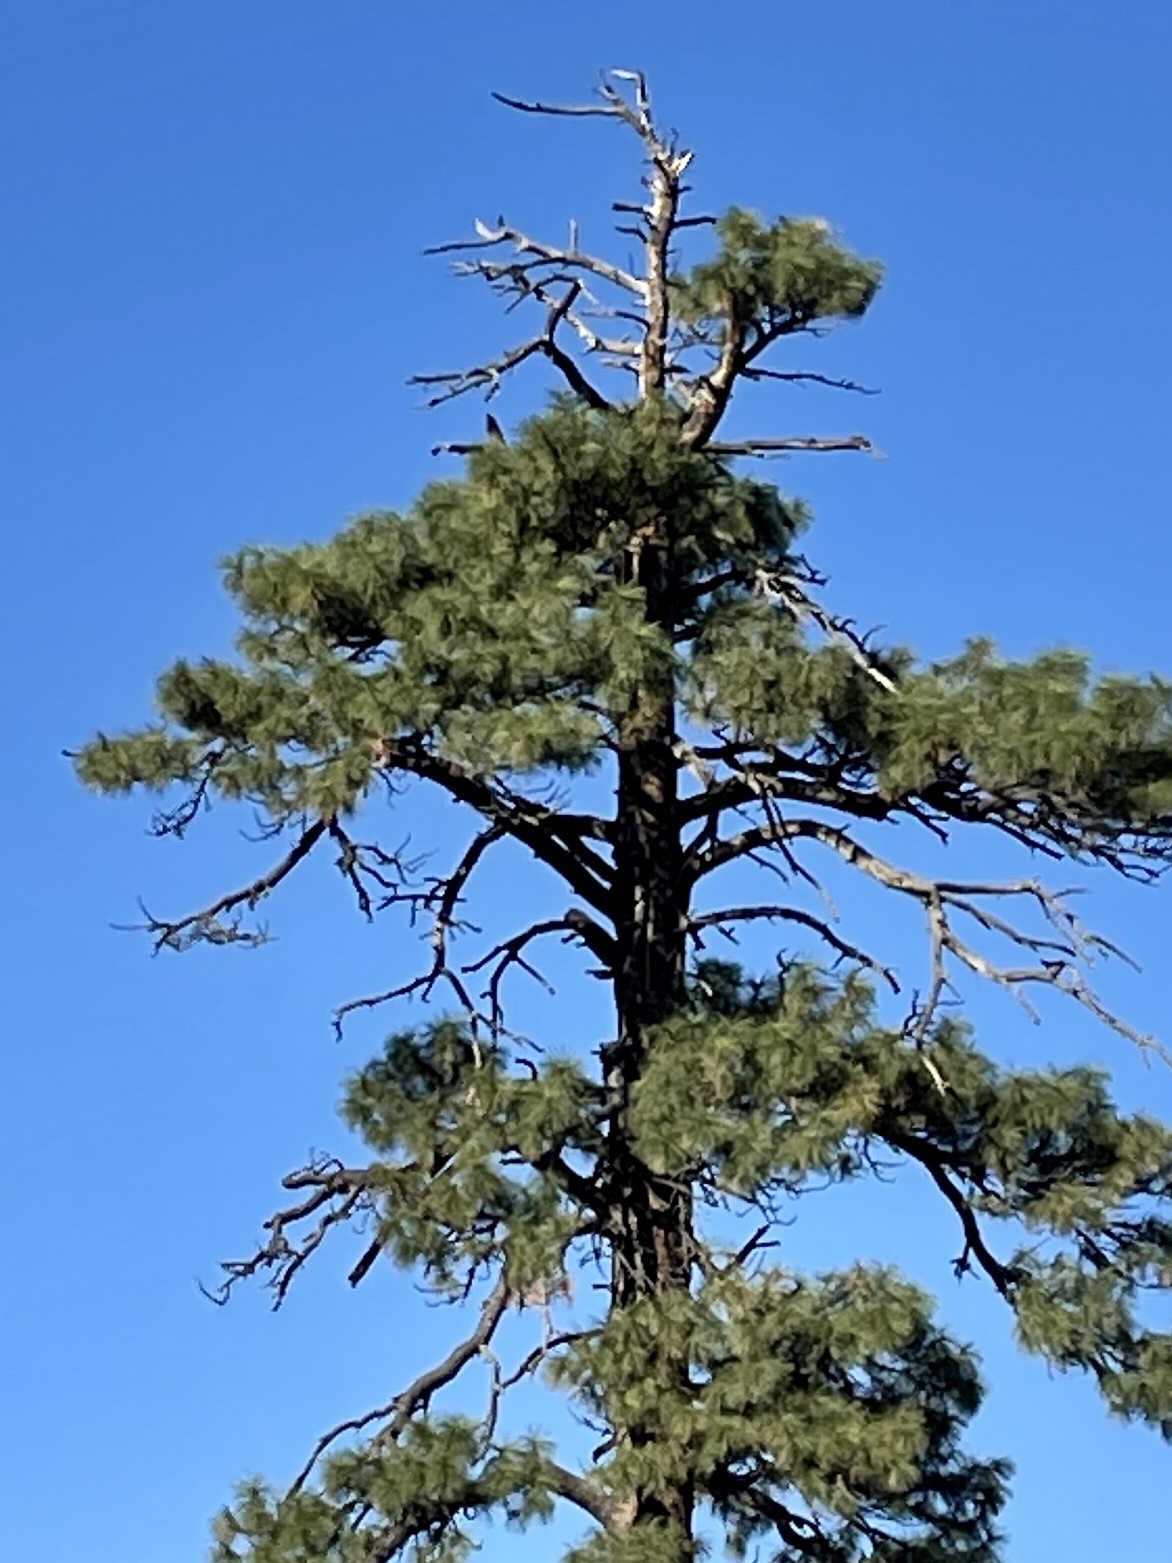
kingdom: Plantae
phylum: Tracheophyta
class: Pinopsida
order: Pinales
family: Pinaceae
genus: Pinus
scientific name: Pinus ponderosa
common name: Western yellow-pine
